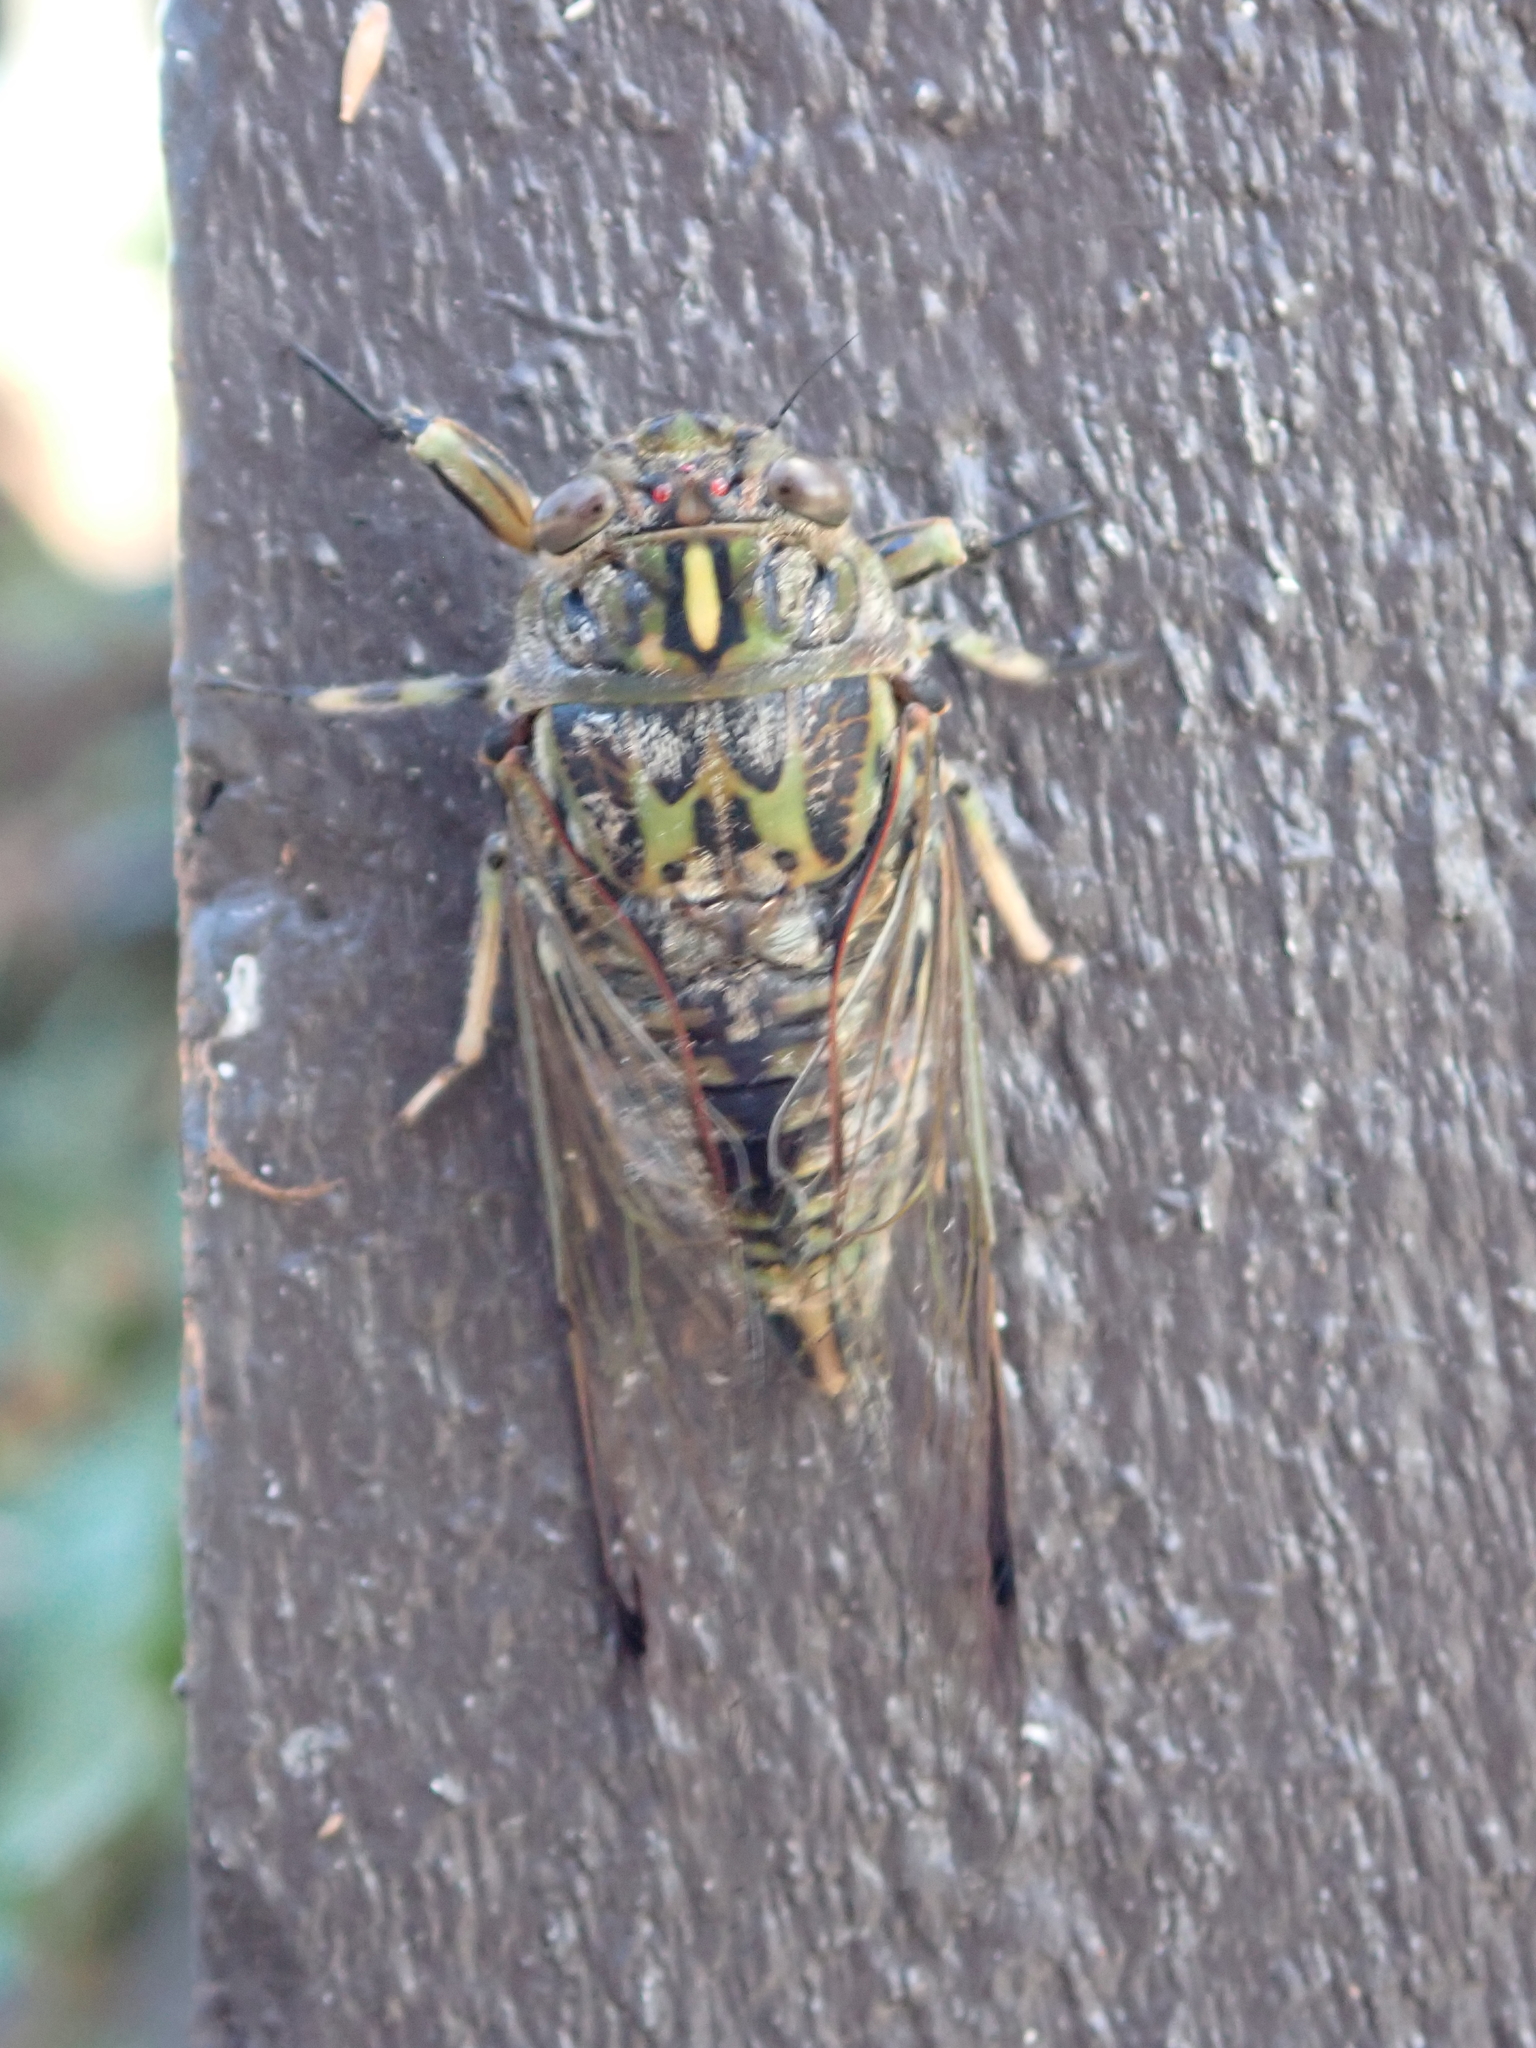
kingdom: Animalia
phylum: Arthropoda
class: Insecta
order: Hemiptera
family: Cicadidae
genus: Amphipsalta
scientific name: Amphipsalta cingulata
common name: Clapping cicada
